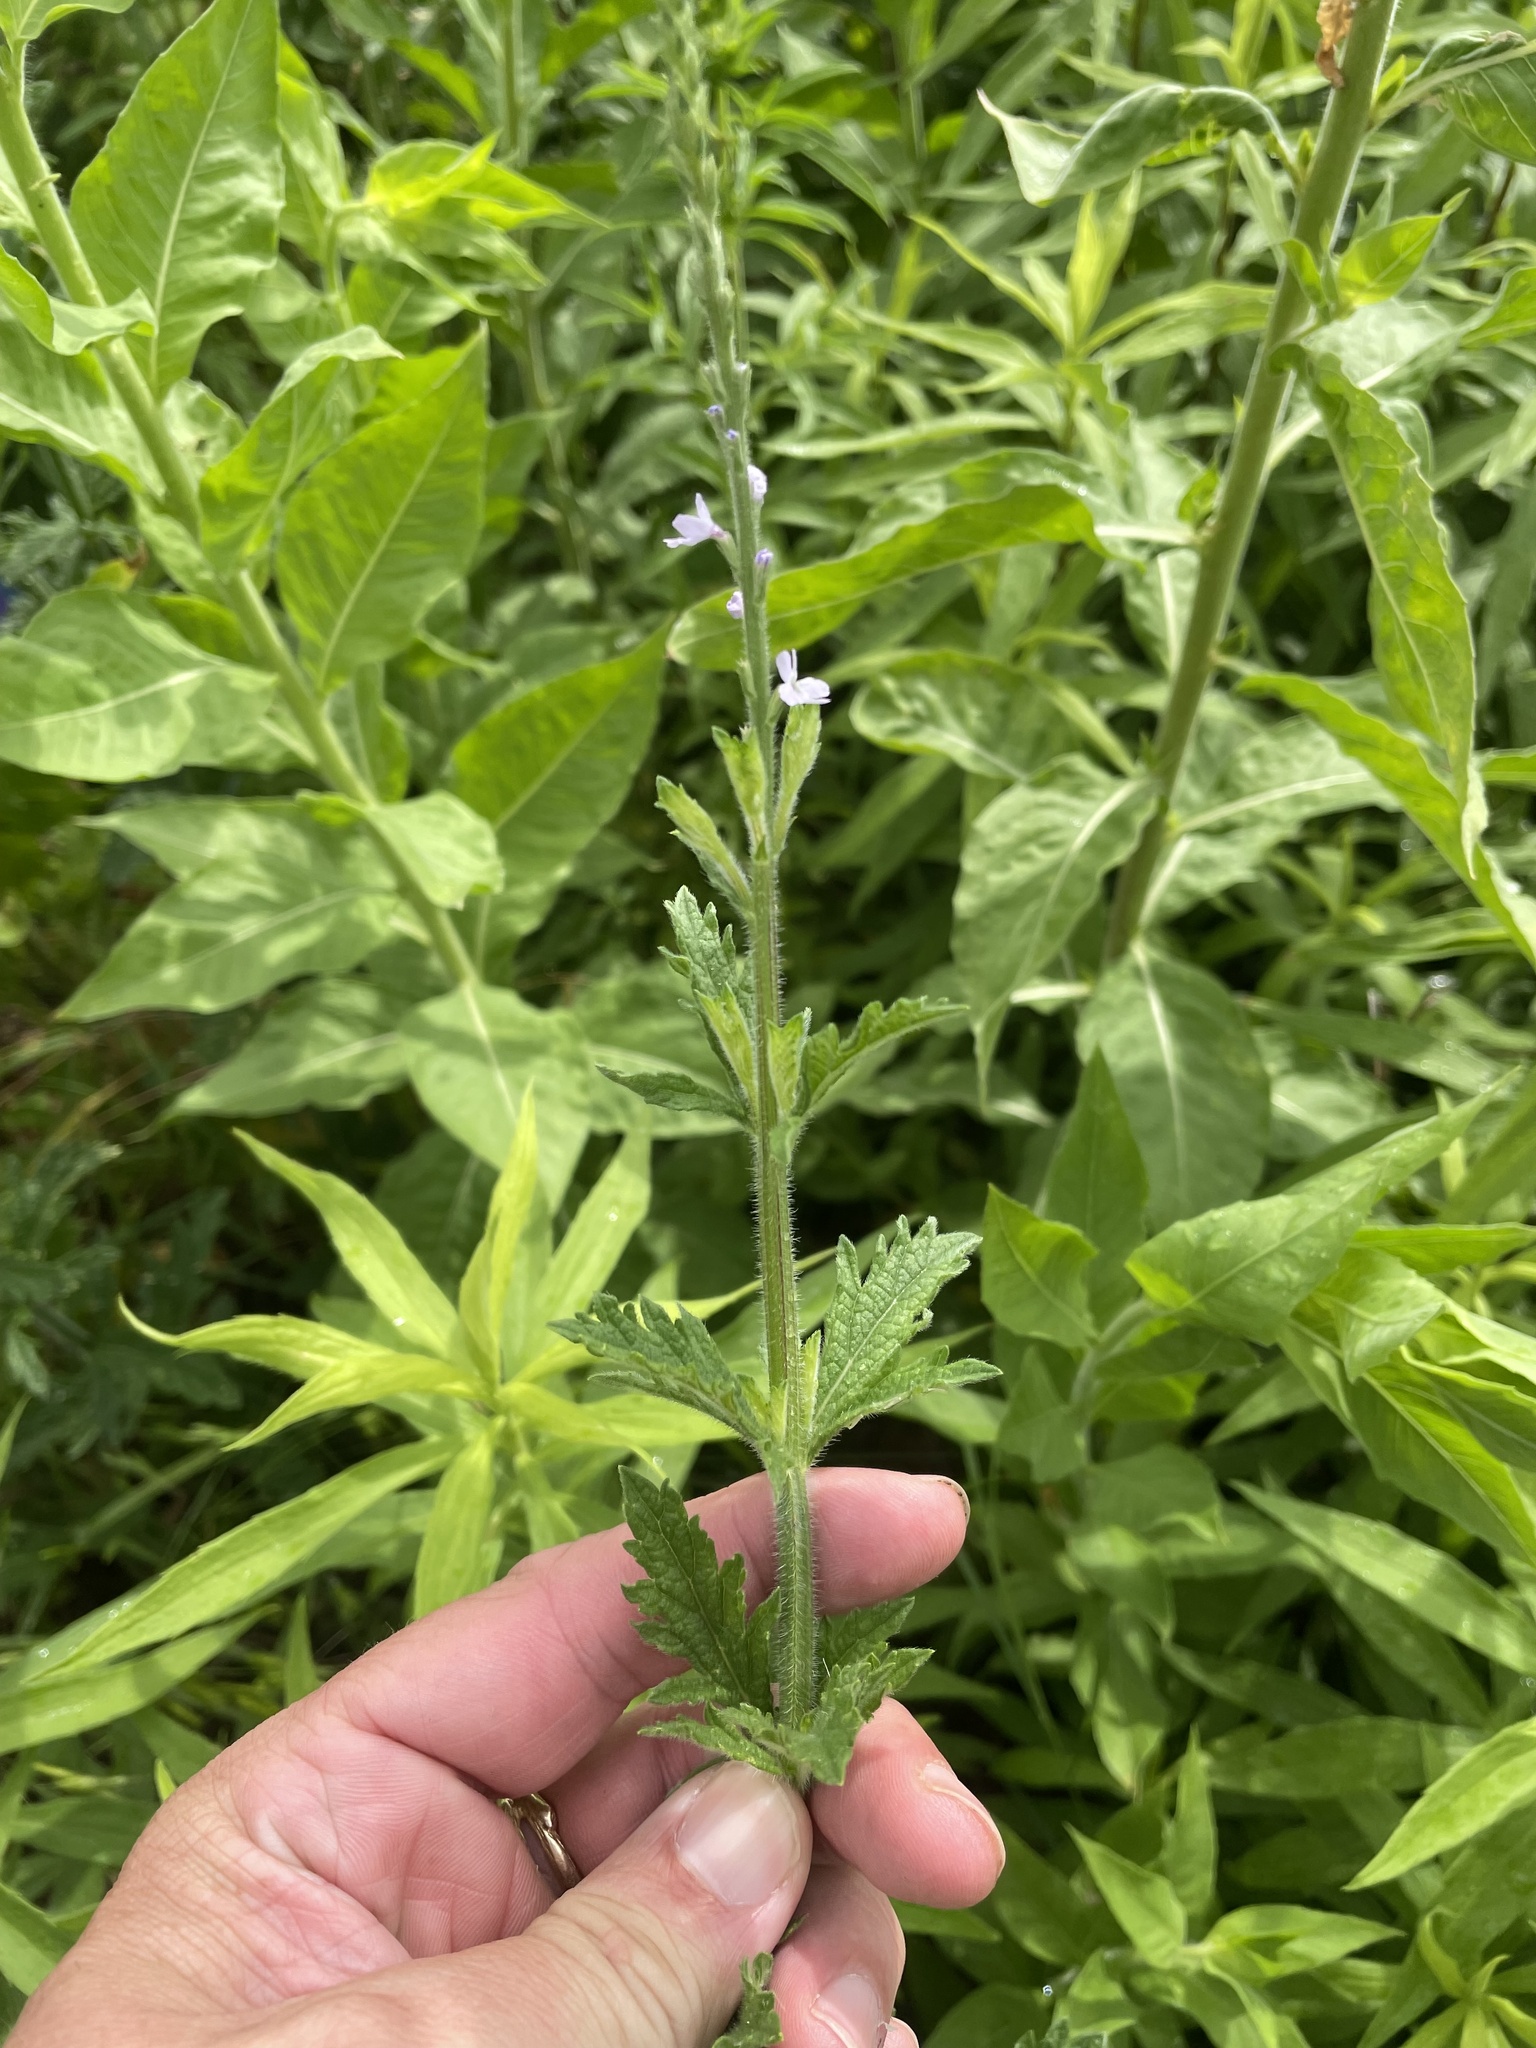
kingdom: Plantae
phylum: Tracheophyta
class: Magnoliopsida
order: Lamiales
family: Verbenaceae
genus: Verbena
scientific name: Verbena xutha
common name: Gulf vervain
